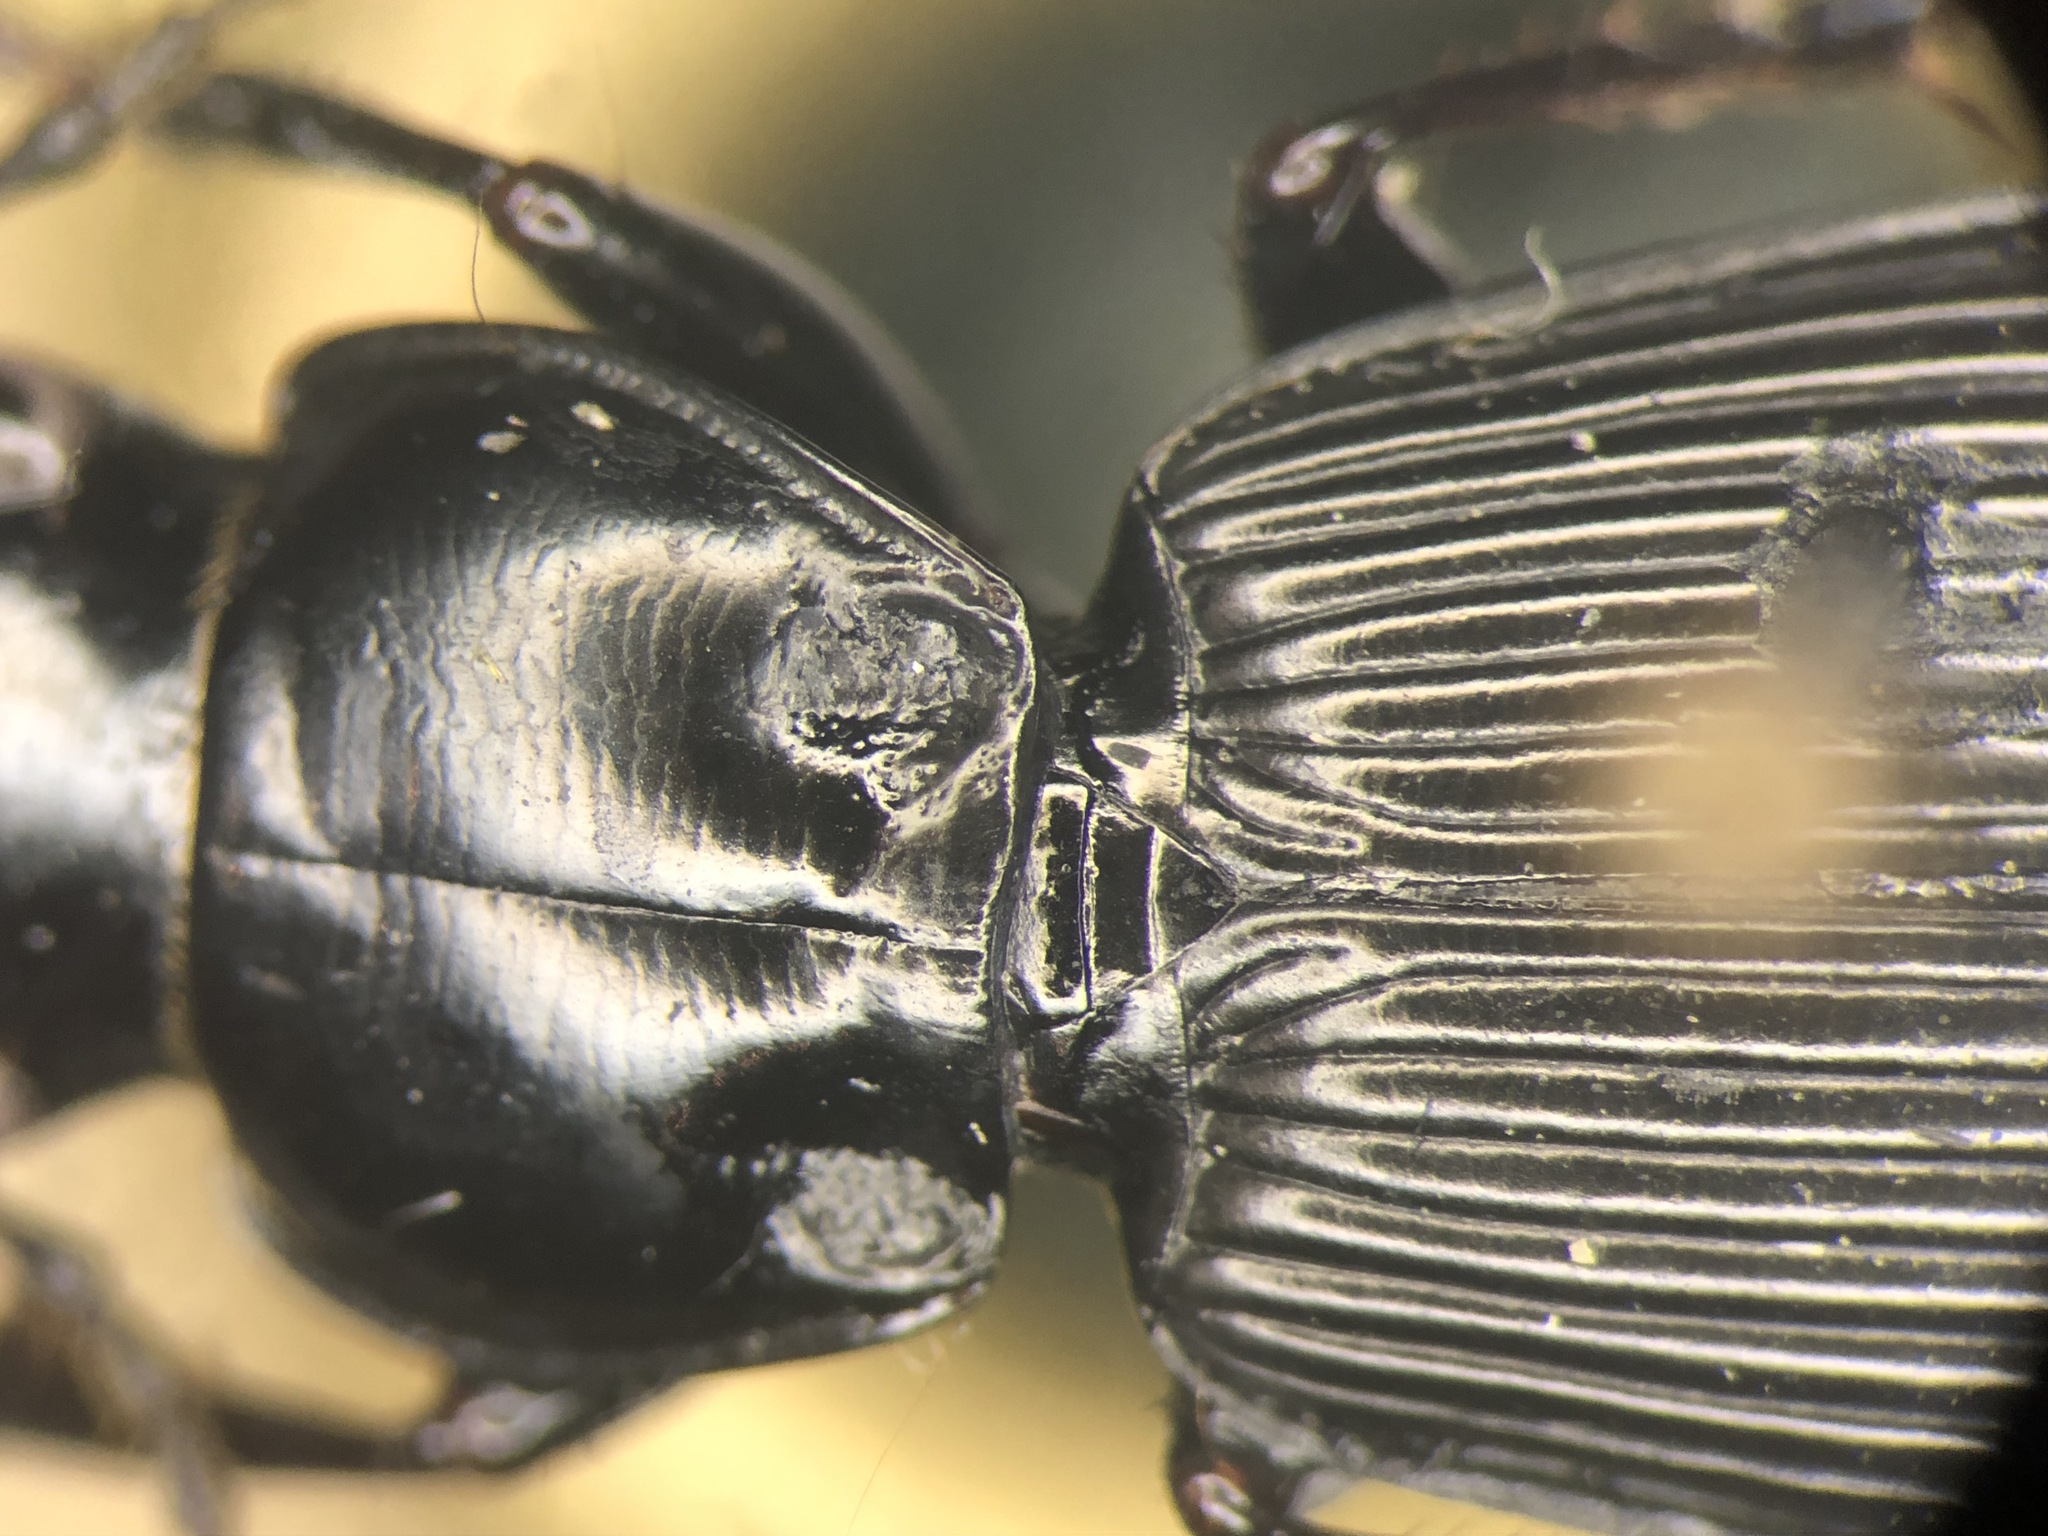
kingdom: Animalia
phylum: Arthropoda
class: Insecta
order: Coleoptera
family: Carabidae
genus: Pterostichus
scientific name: Pterostichus coracinus
